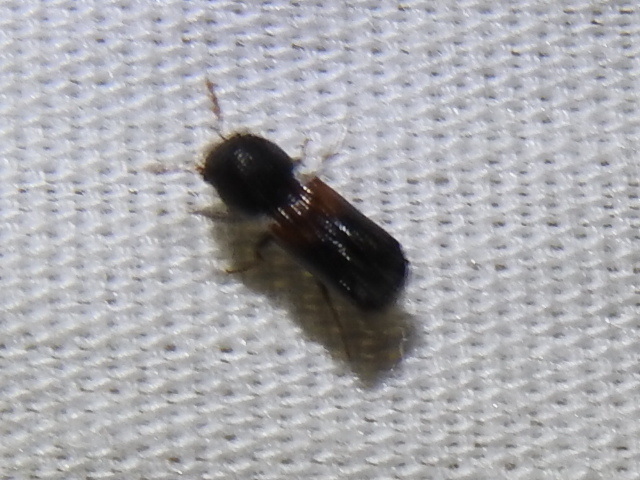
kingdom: Animalia
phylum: Arthropoda
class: Insecta
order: Coleoptera
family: Bostrichidae
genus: Xylobiops
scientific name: Xylobiops basilaris
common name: Red-shouldered bostrichid
